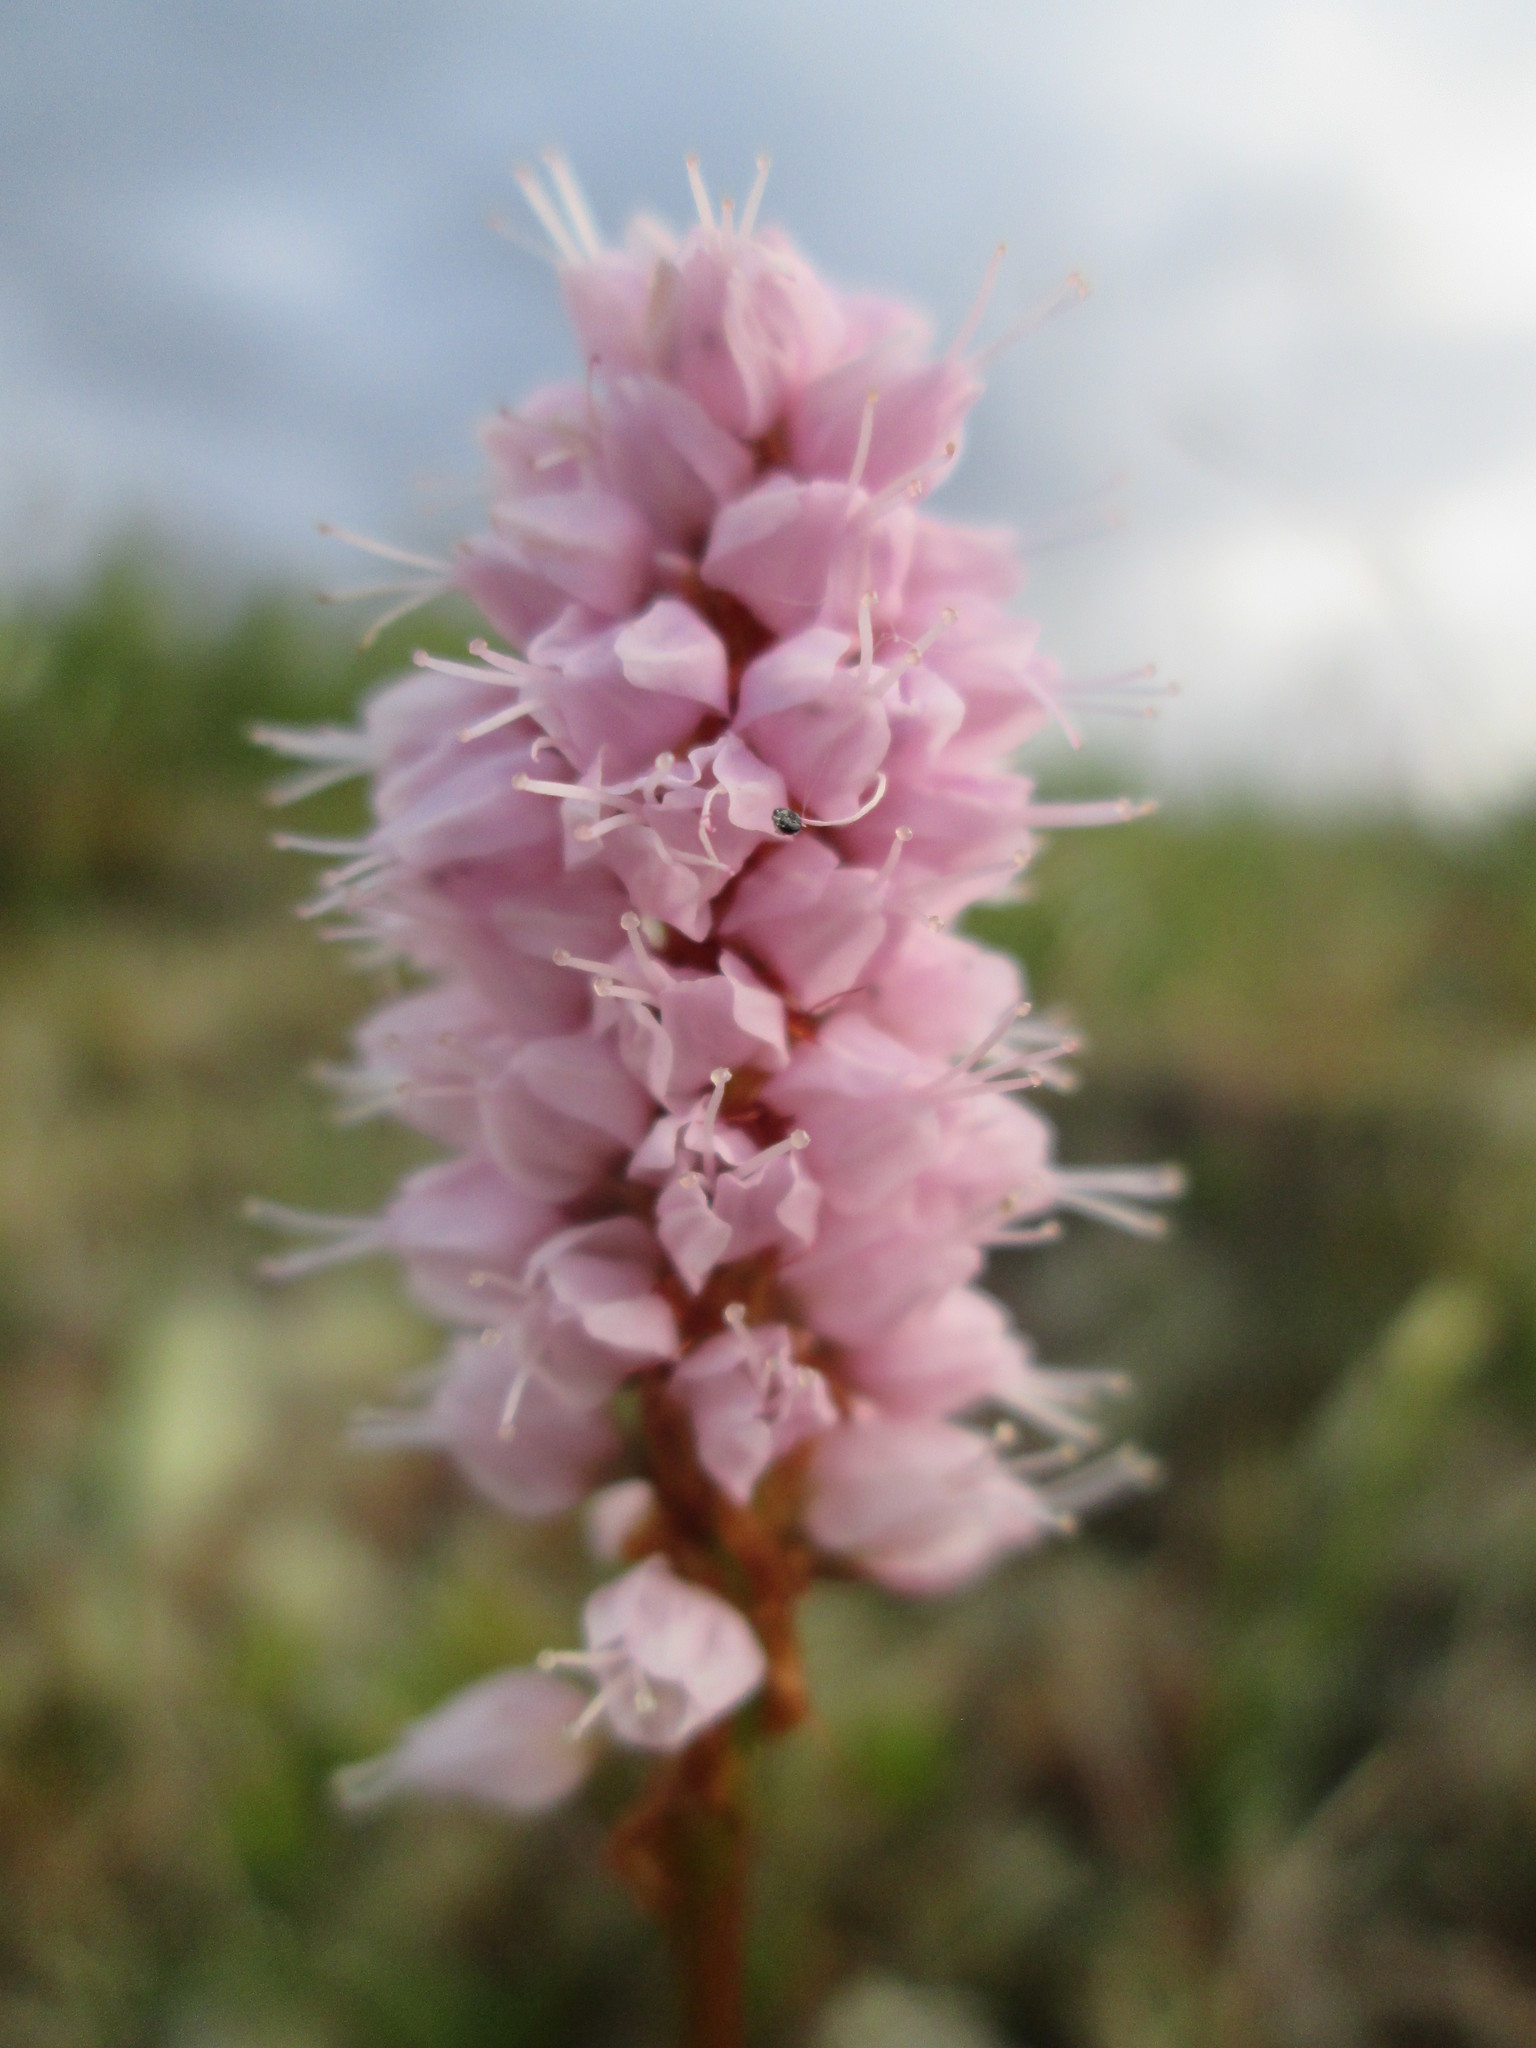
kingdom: Plantae
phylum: Tracheophyta
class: Magnoliopsida
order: Caryophyllales
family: Polygonaceae
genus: Bistorta
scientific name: Bistorta plumosa
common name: Meadow bistort
